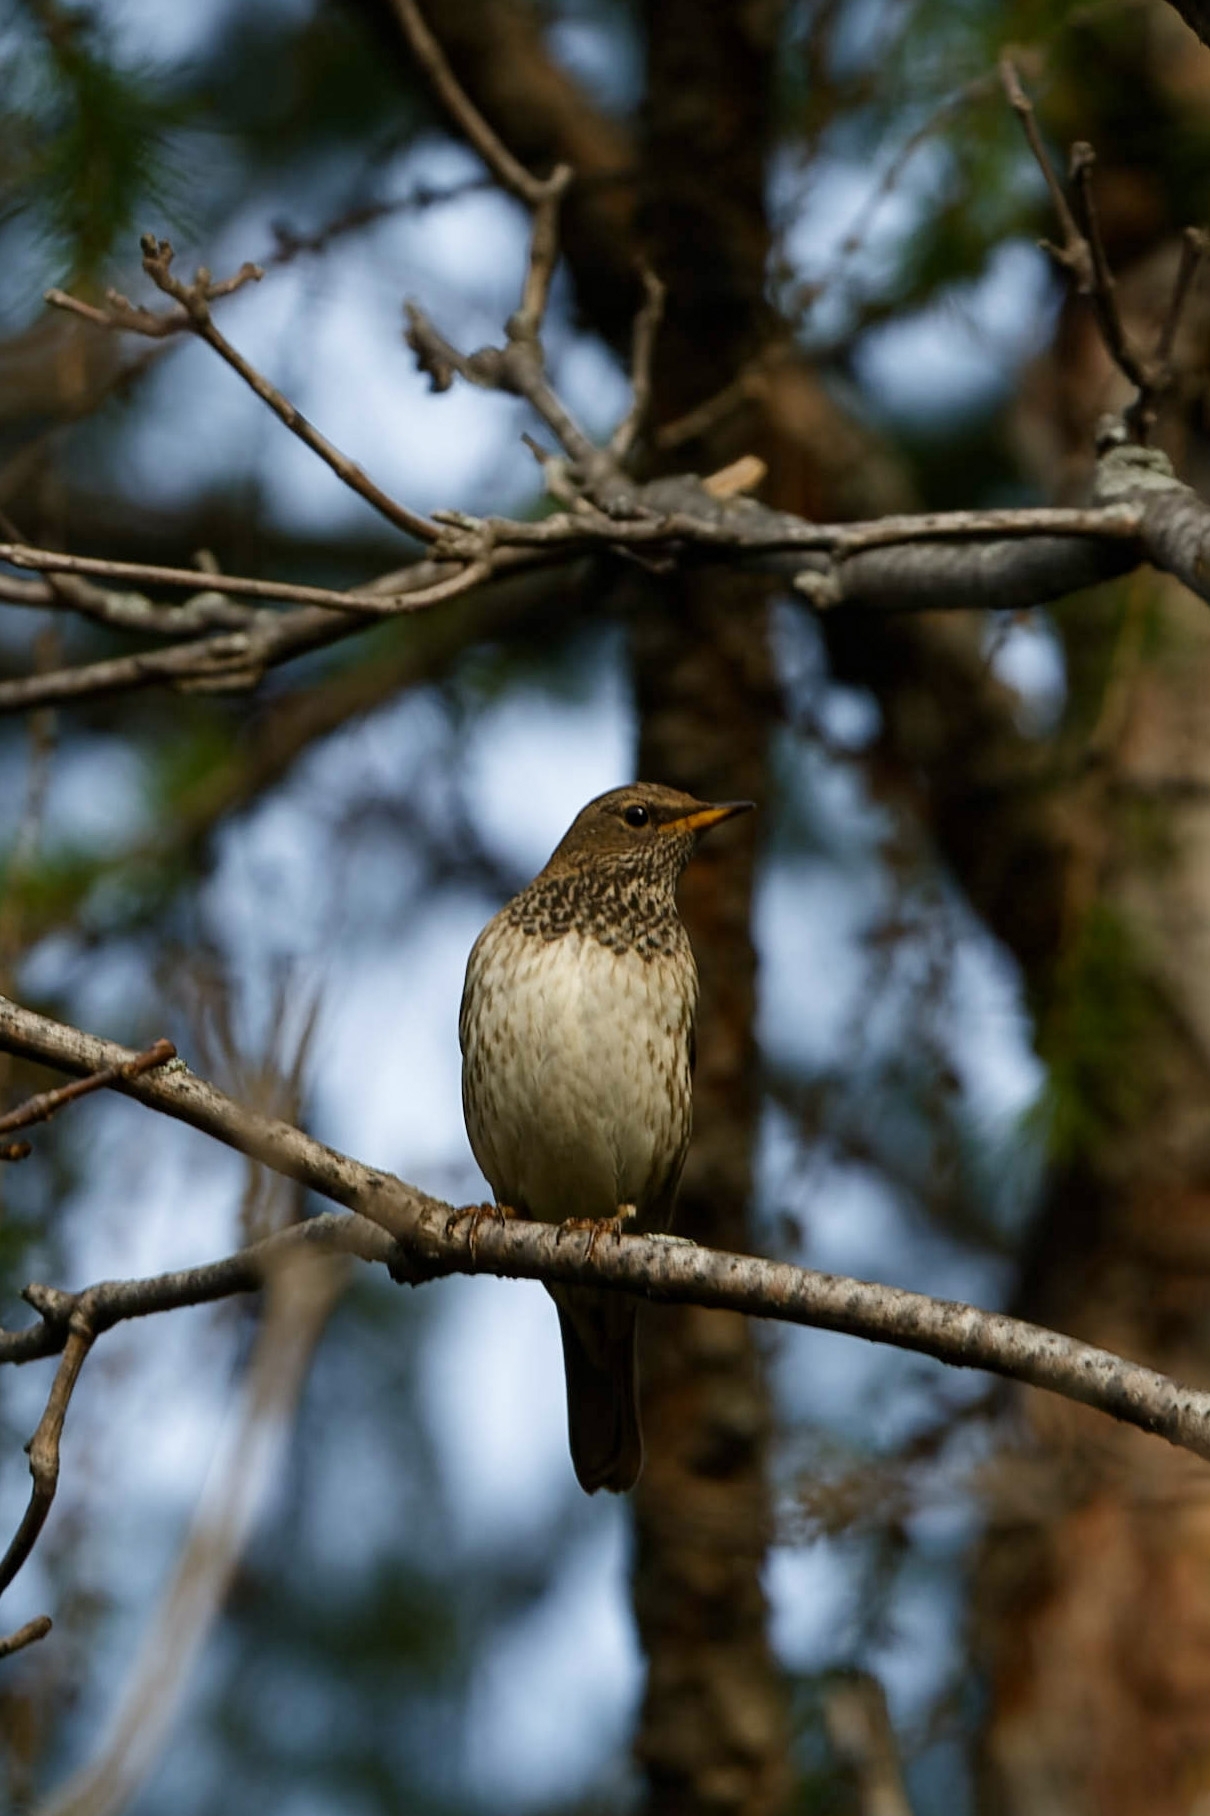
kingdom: Animalia
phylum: Chordata
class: Aves
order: Passeriformes
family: Turdidae
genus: Turdus
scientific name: Turdus atrogularis
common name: Black-throated thrush
